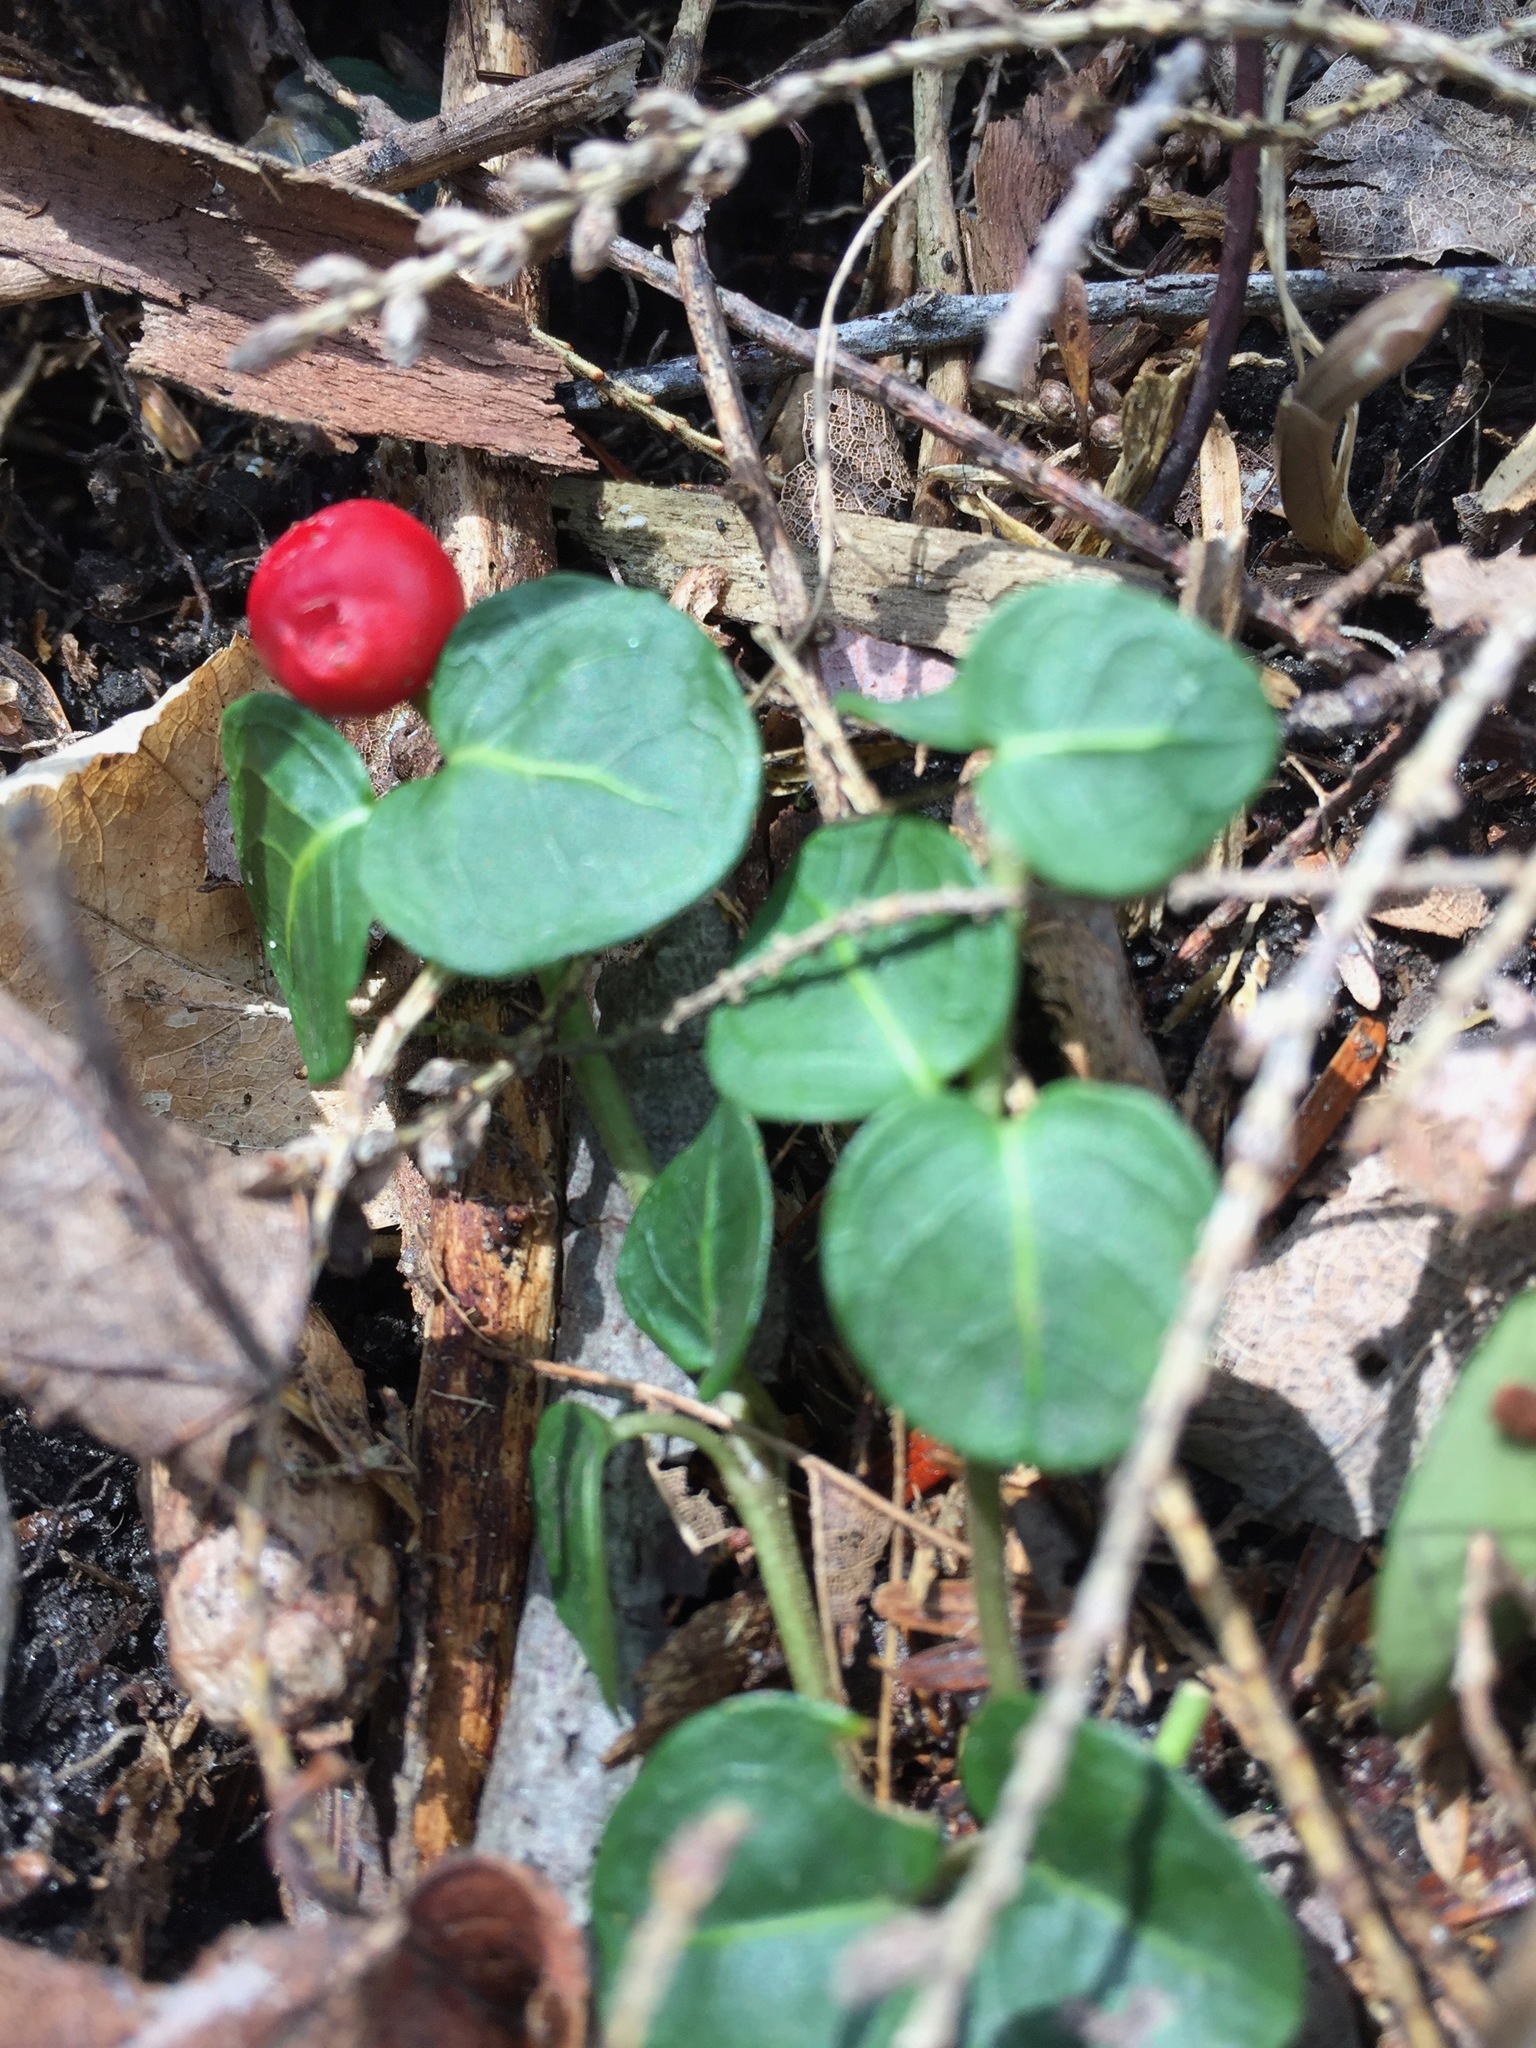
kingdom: Plantae
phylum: Tracheophyta
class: Magnoliopsida
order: Gentianales
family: Rubiaceae
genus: Mitchella
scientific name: Mitchella repens
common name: Partridge-berry
